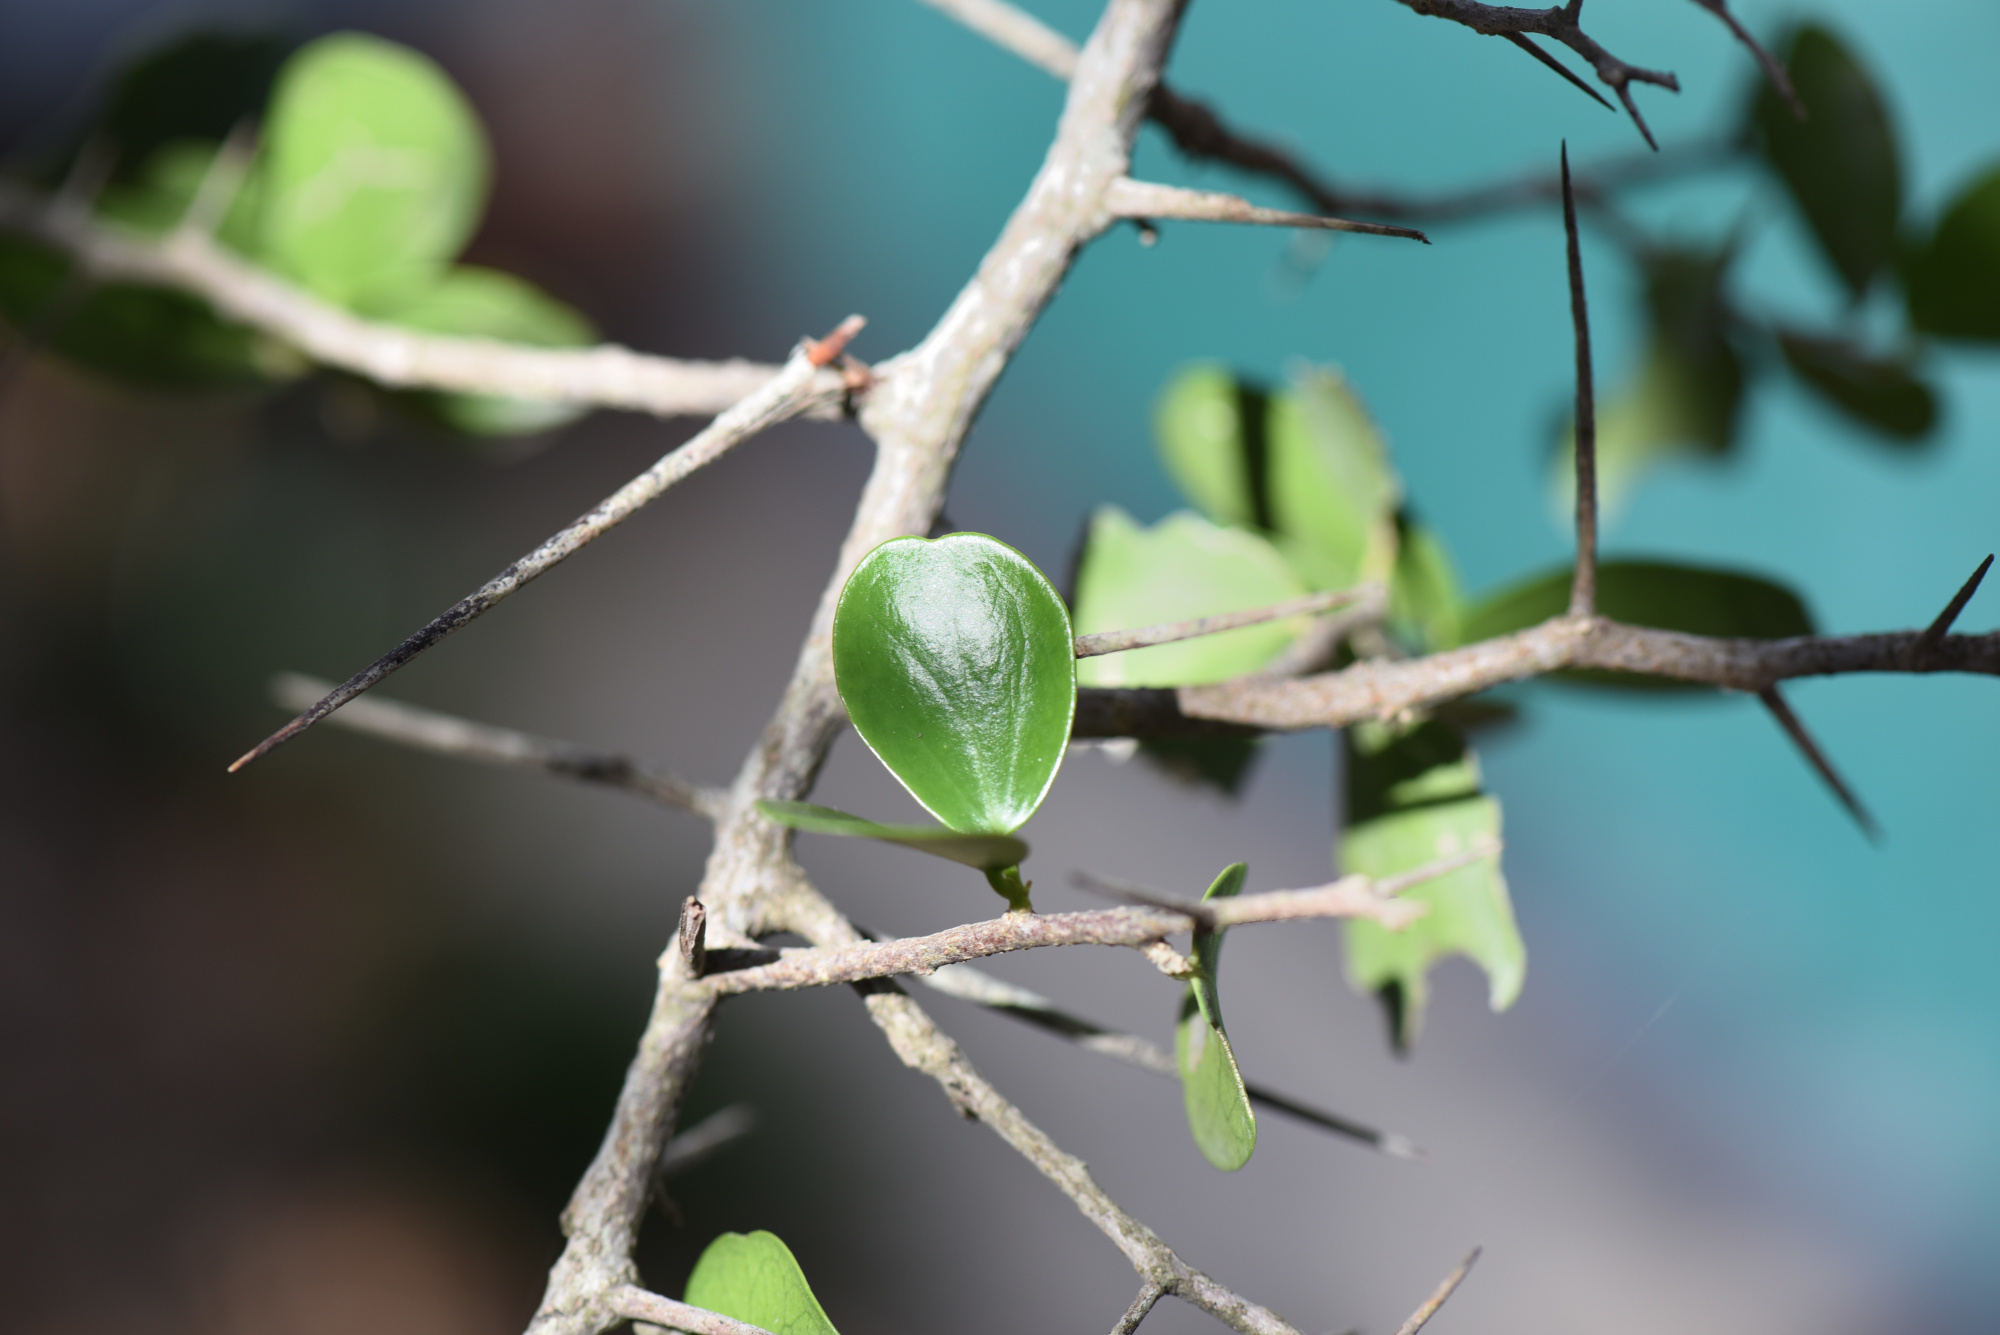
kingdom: Plantae
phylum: Tracheophyta
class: Magnoliopsida
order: Malpighiales
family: Salicaceae
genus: Dovyalis
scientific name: Dovyalis rotundifolia
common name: Dune sourberry
